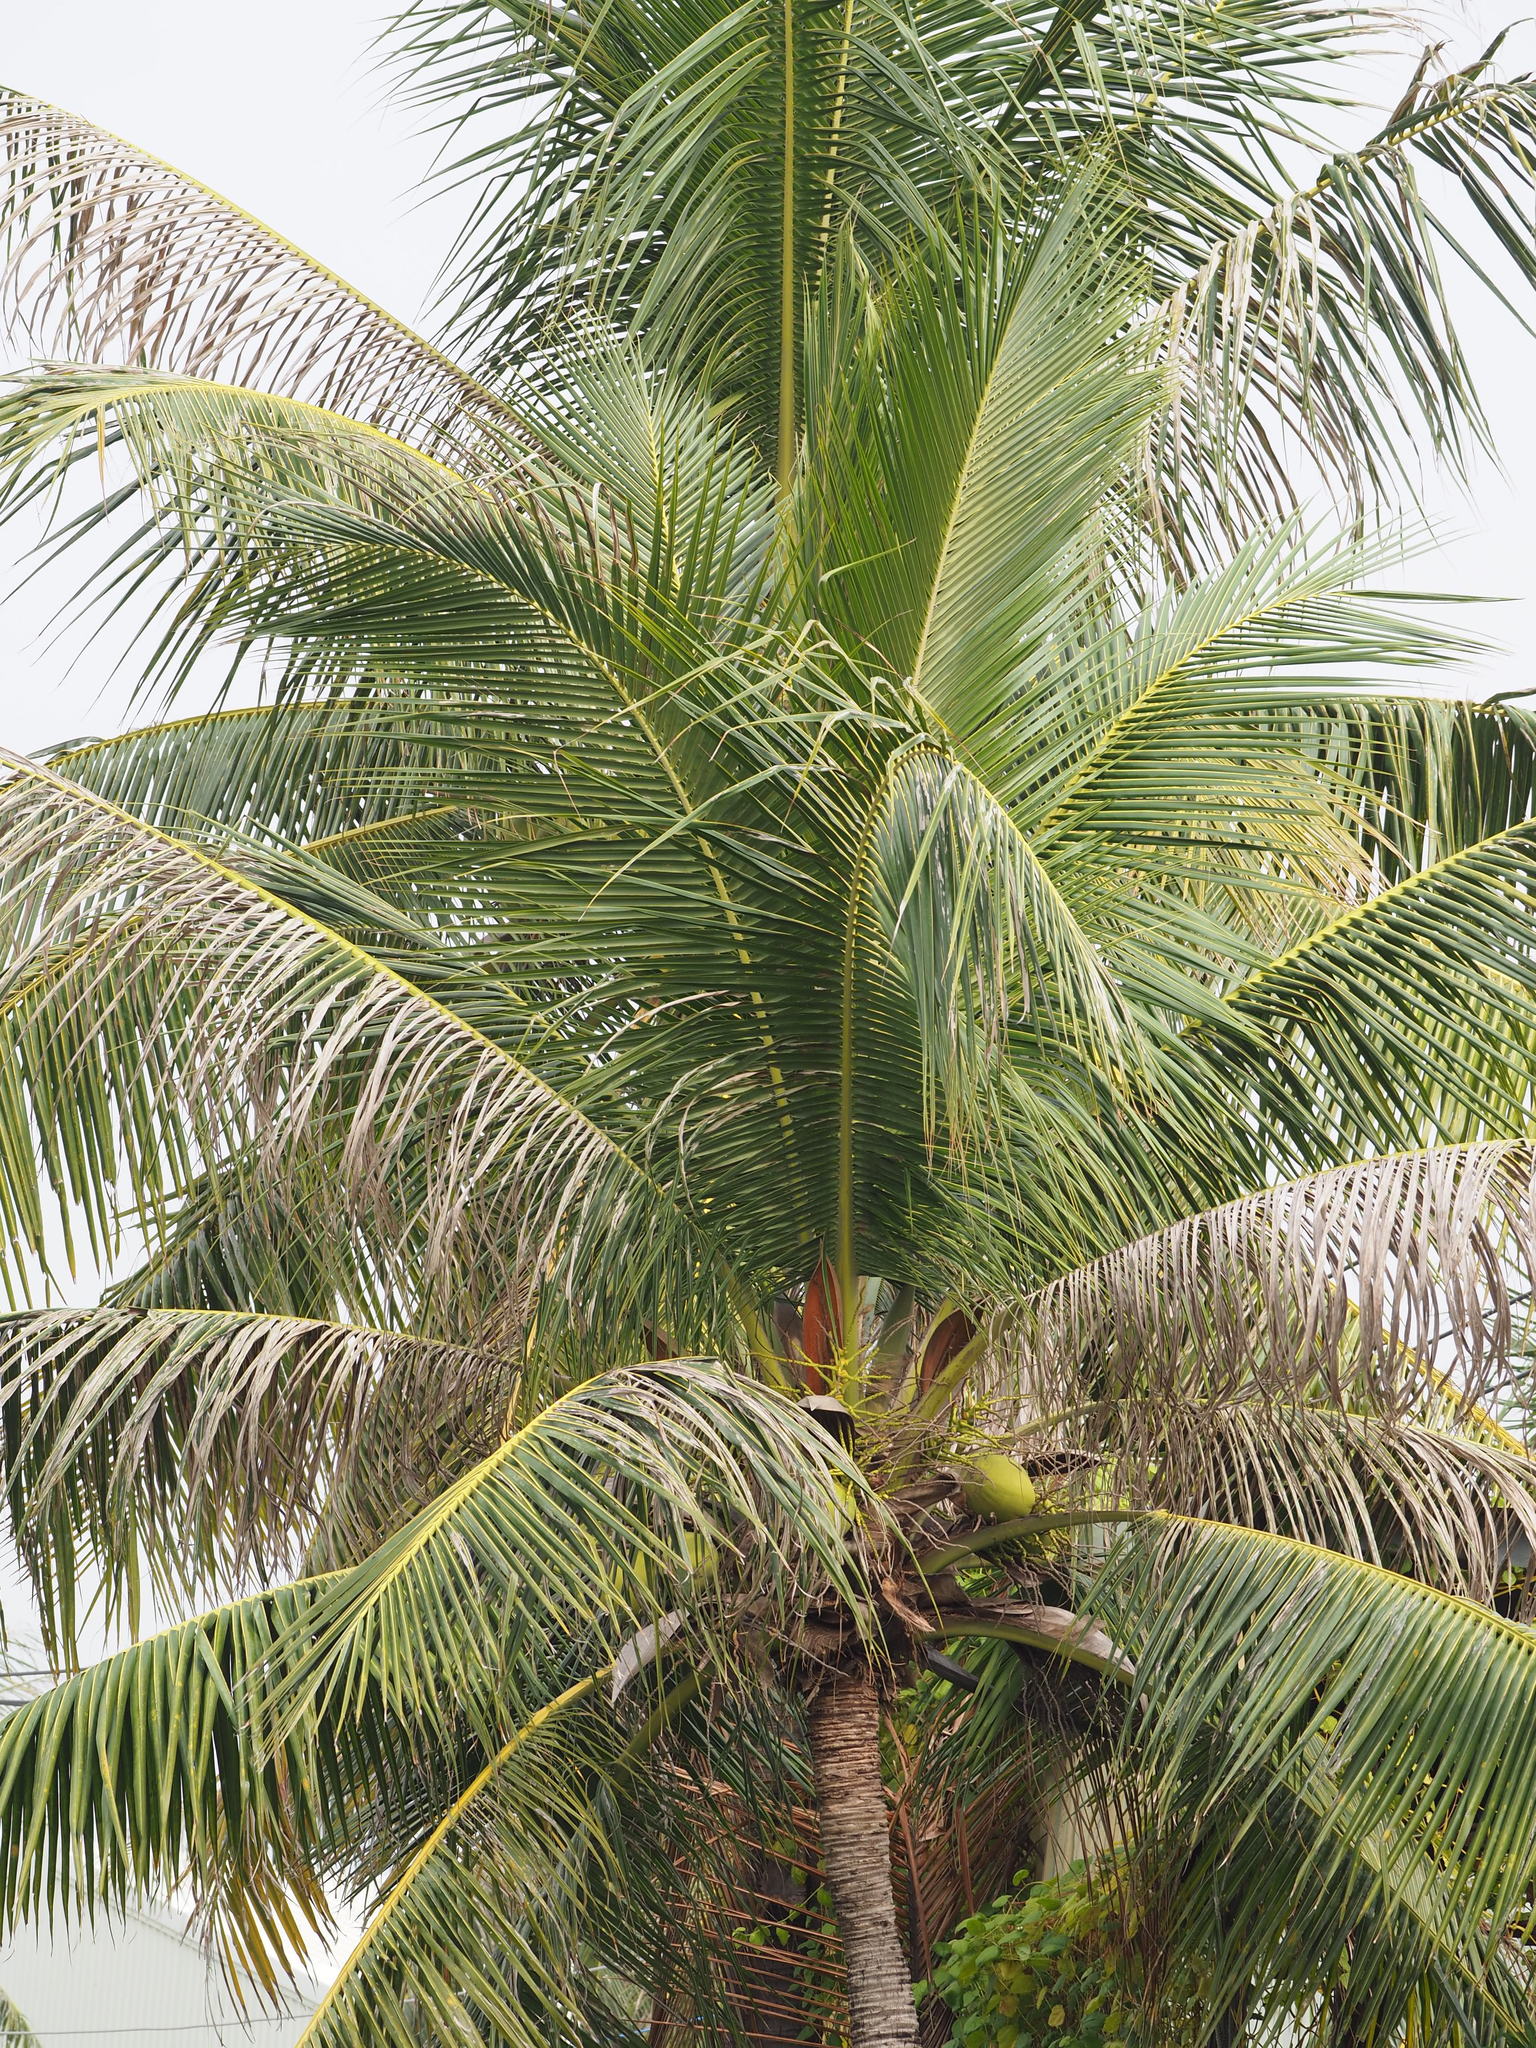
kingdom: Plantae
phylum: Tracheophyta
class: Liliopsida
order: Arecales
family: Arecaceae
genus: Cocos
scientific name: Cocos nucifera
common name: Coconut palm
